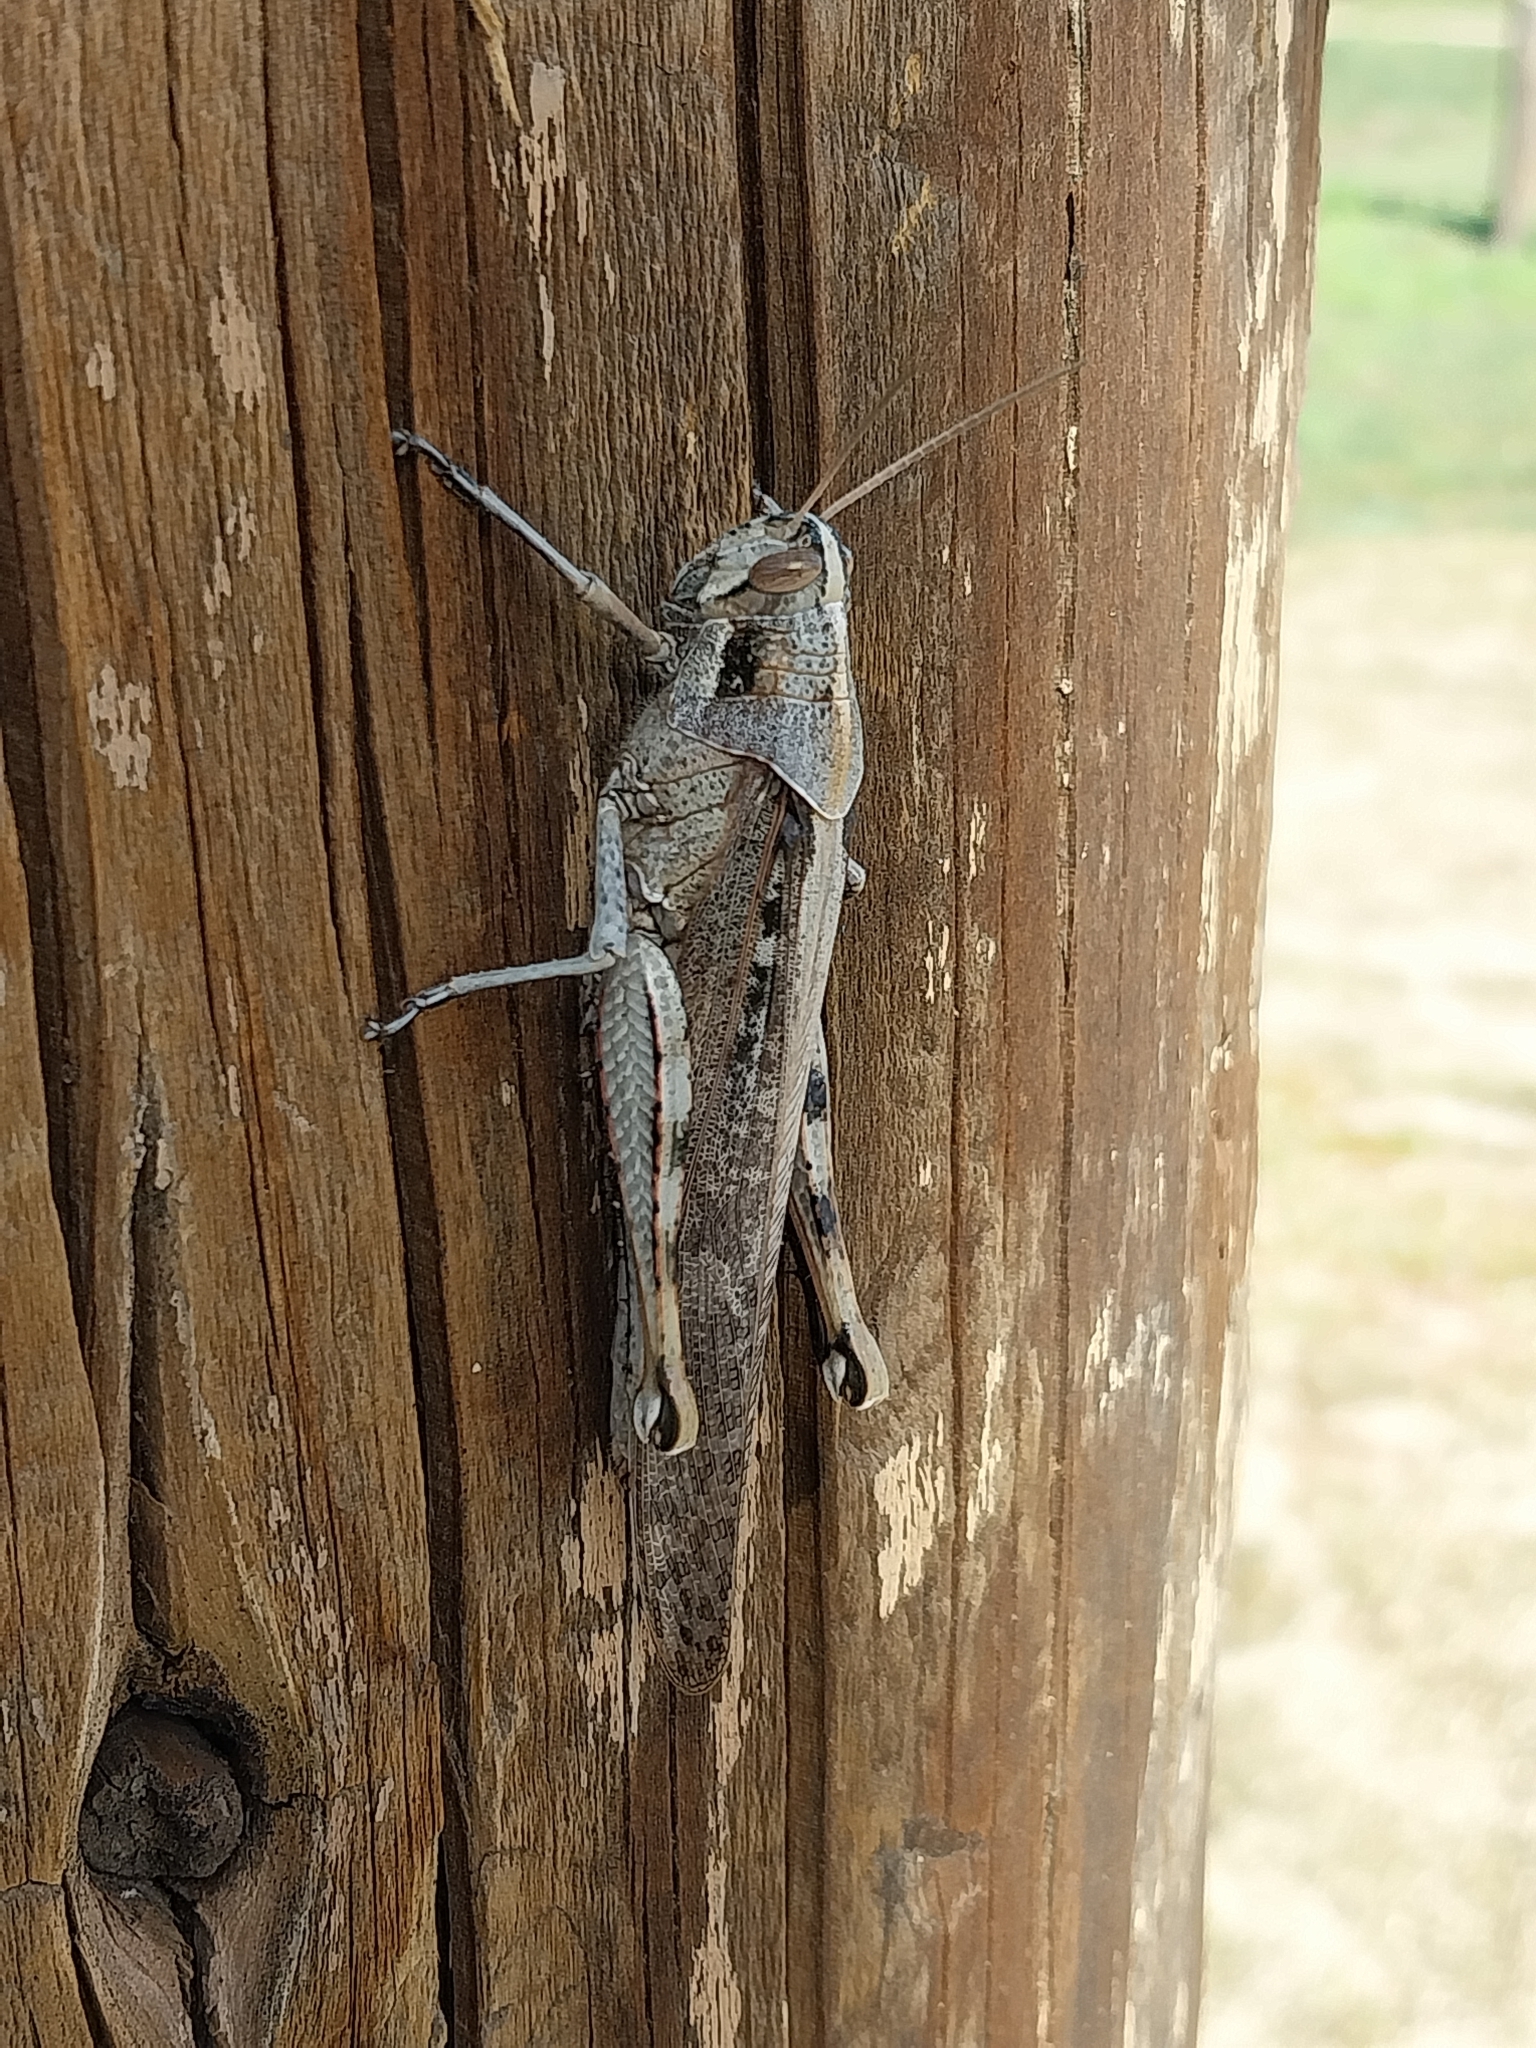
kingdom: Animalia
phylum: Arthropoda
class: Insecta
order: Orthoptera
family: Acrididae
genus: Schistocerca
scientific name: Schistocerca nitens
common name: Vagrant grasshopper
